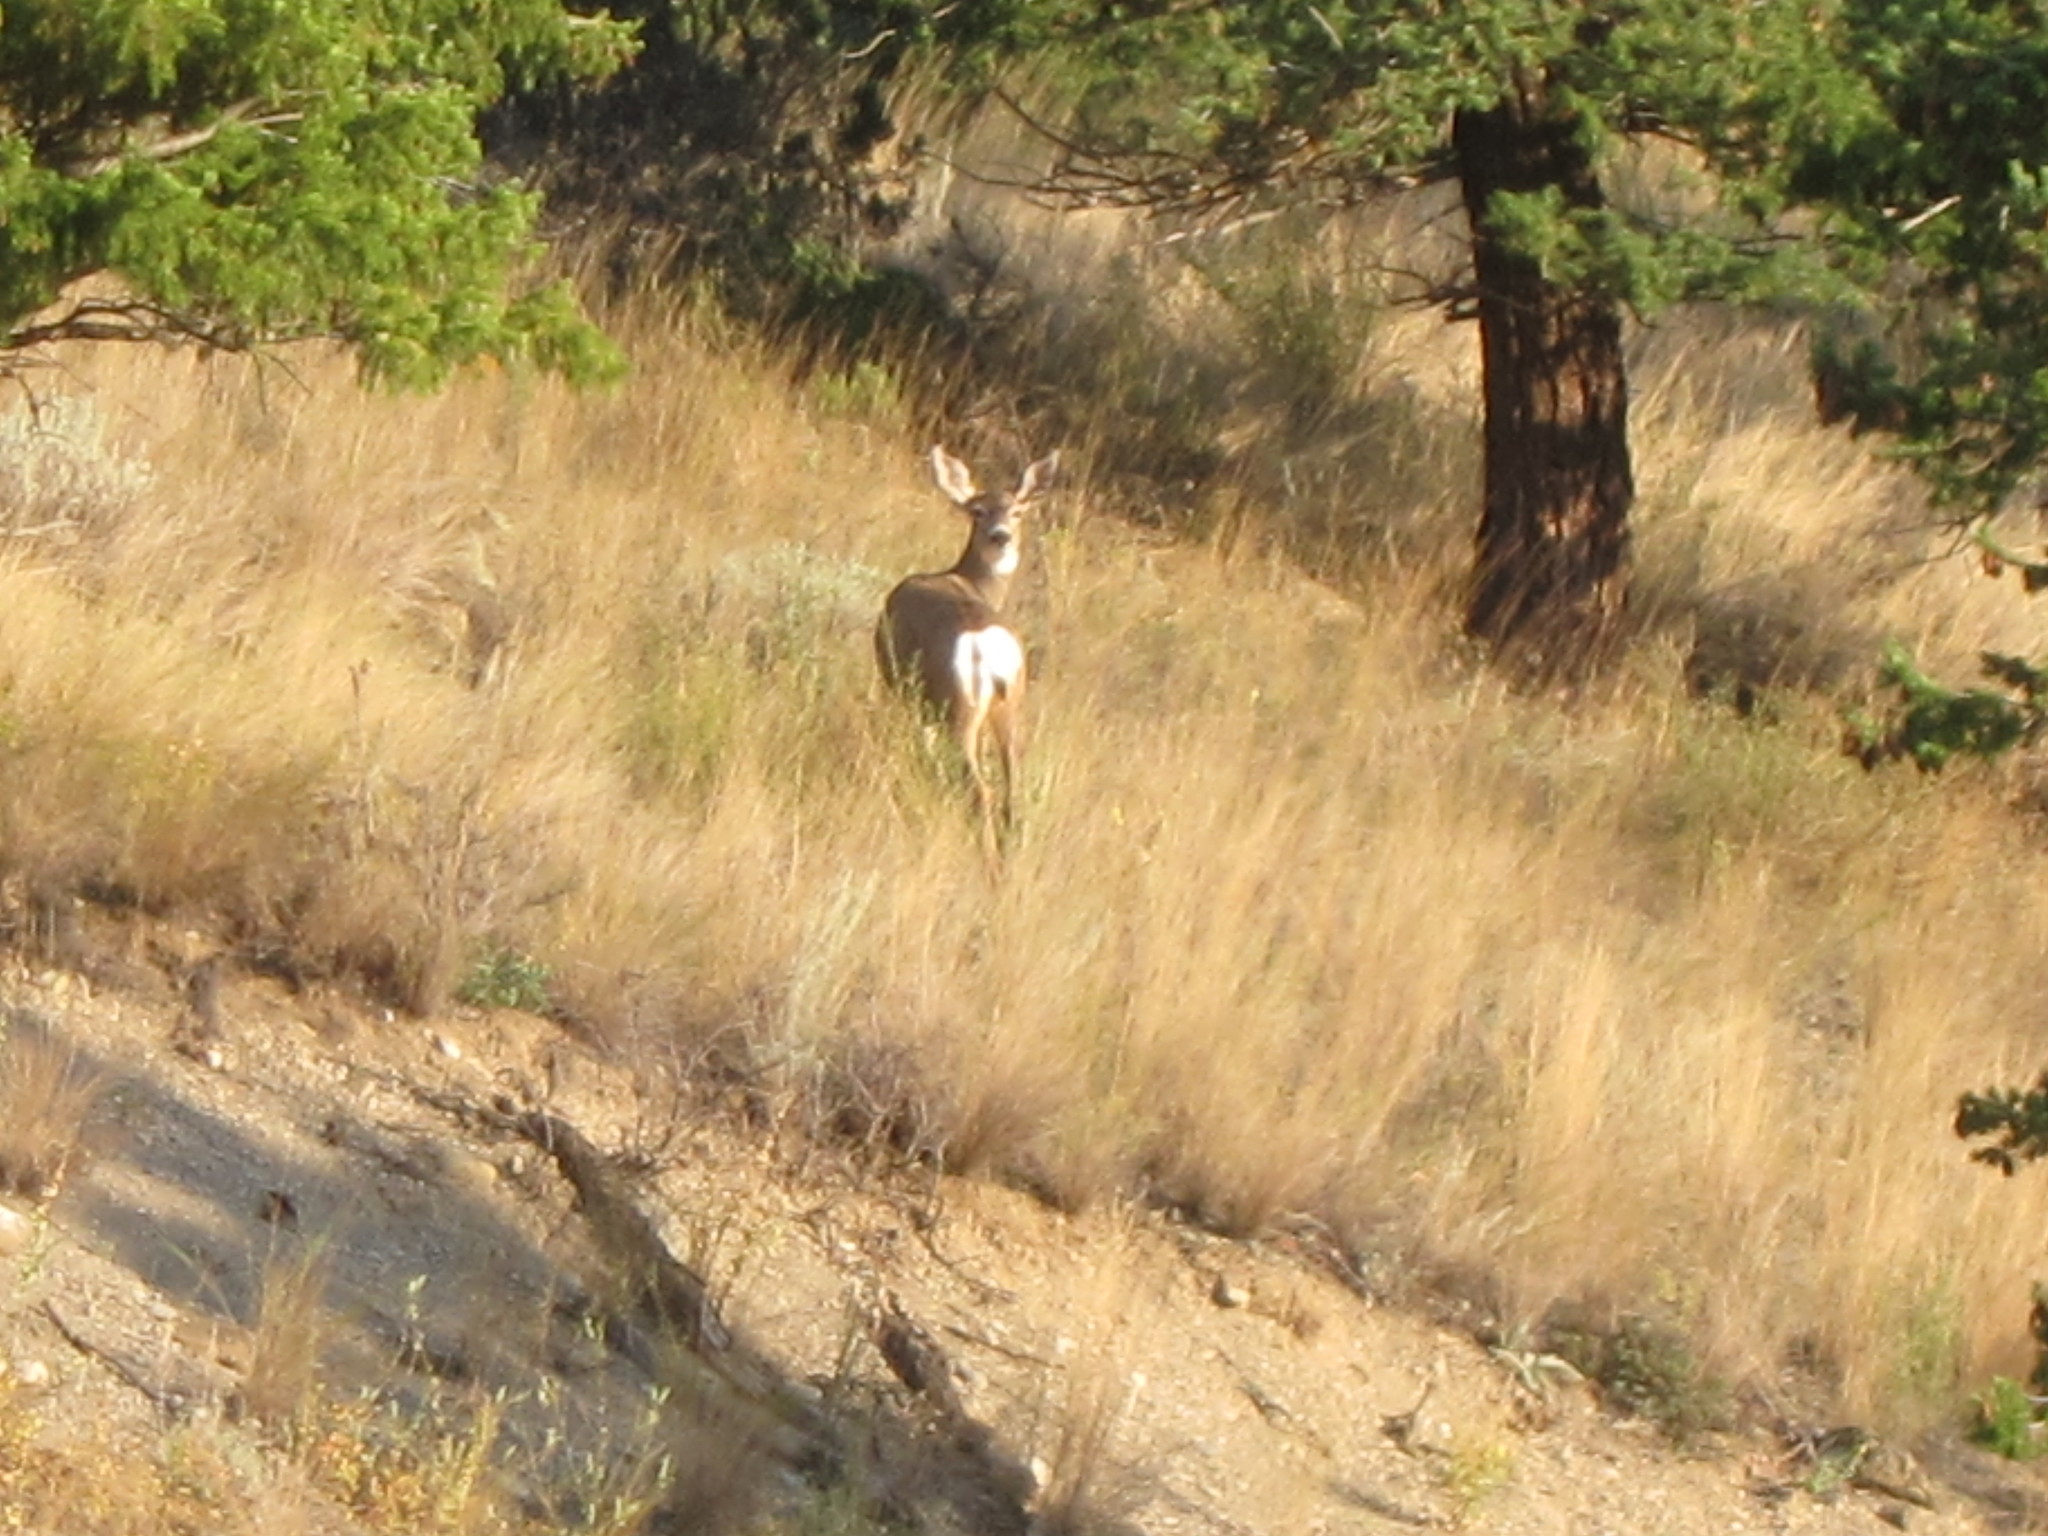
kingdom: Animalia
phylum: Chordata
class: Mammalia
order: Artiodactyla
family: Cervidae
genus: Odocoileus
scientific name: Odocoileus hemionus
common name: Mule deer
